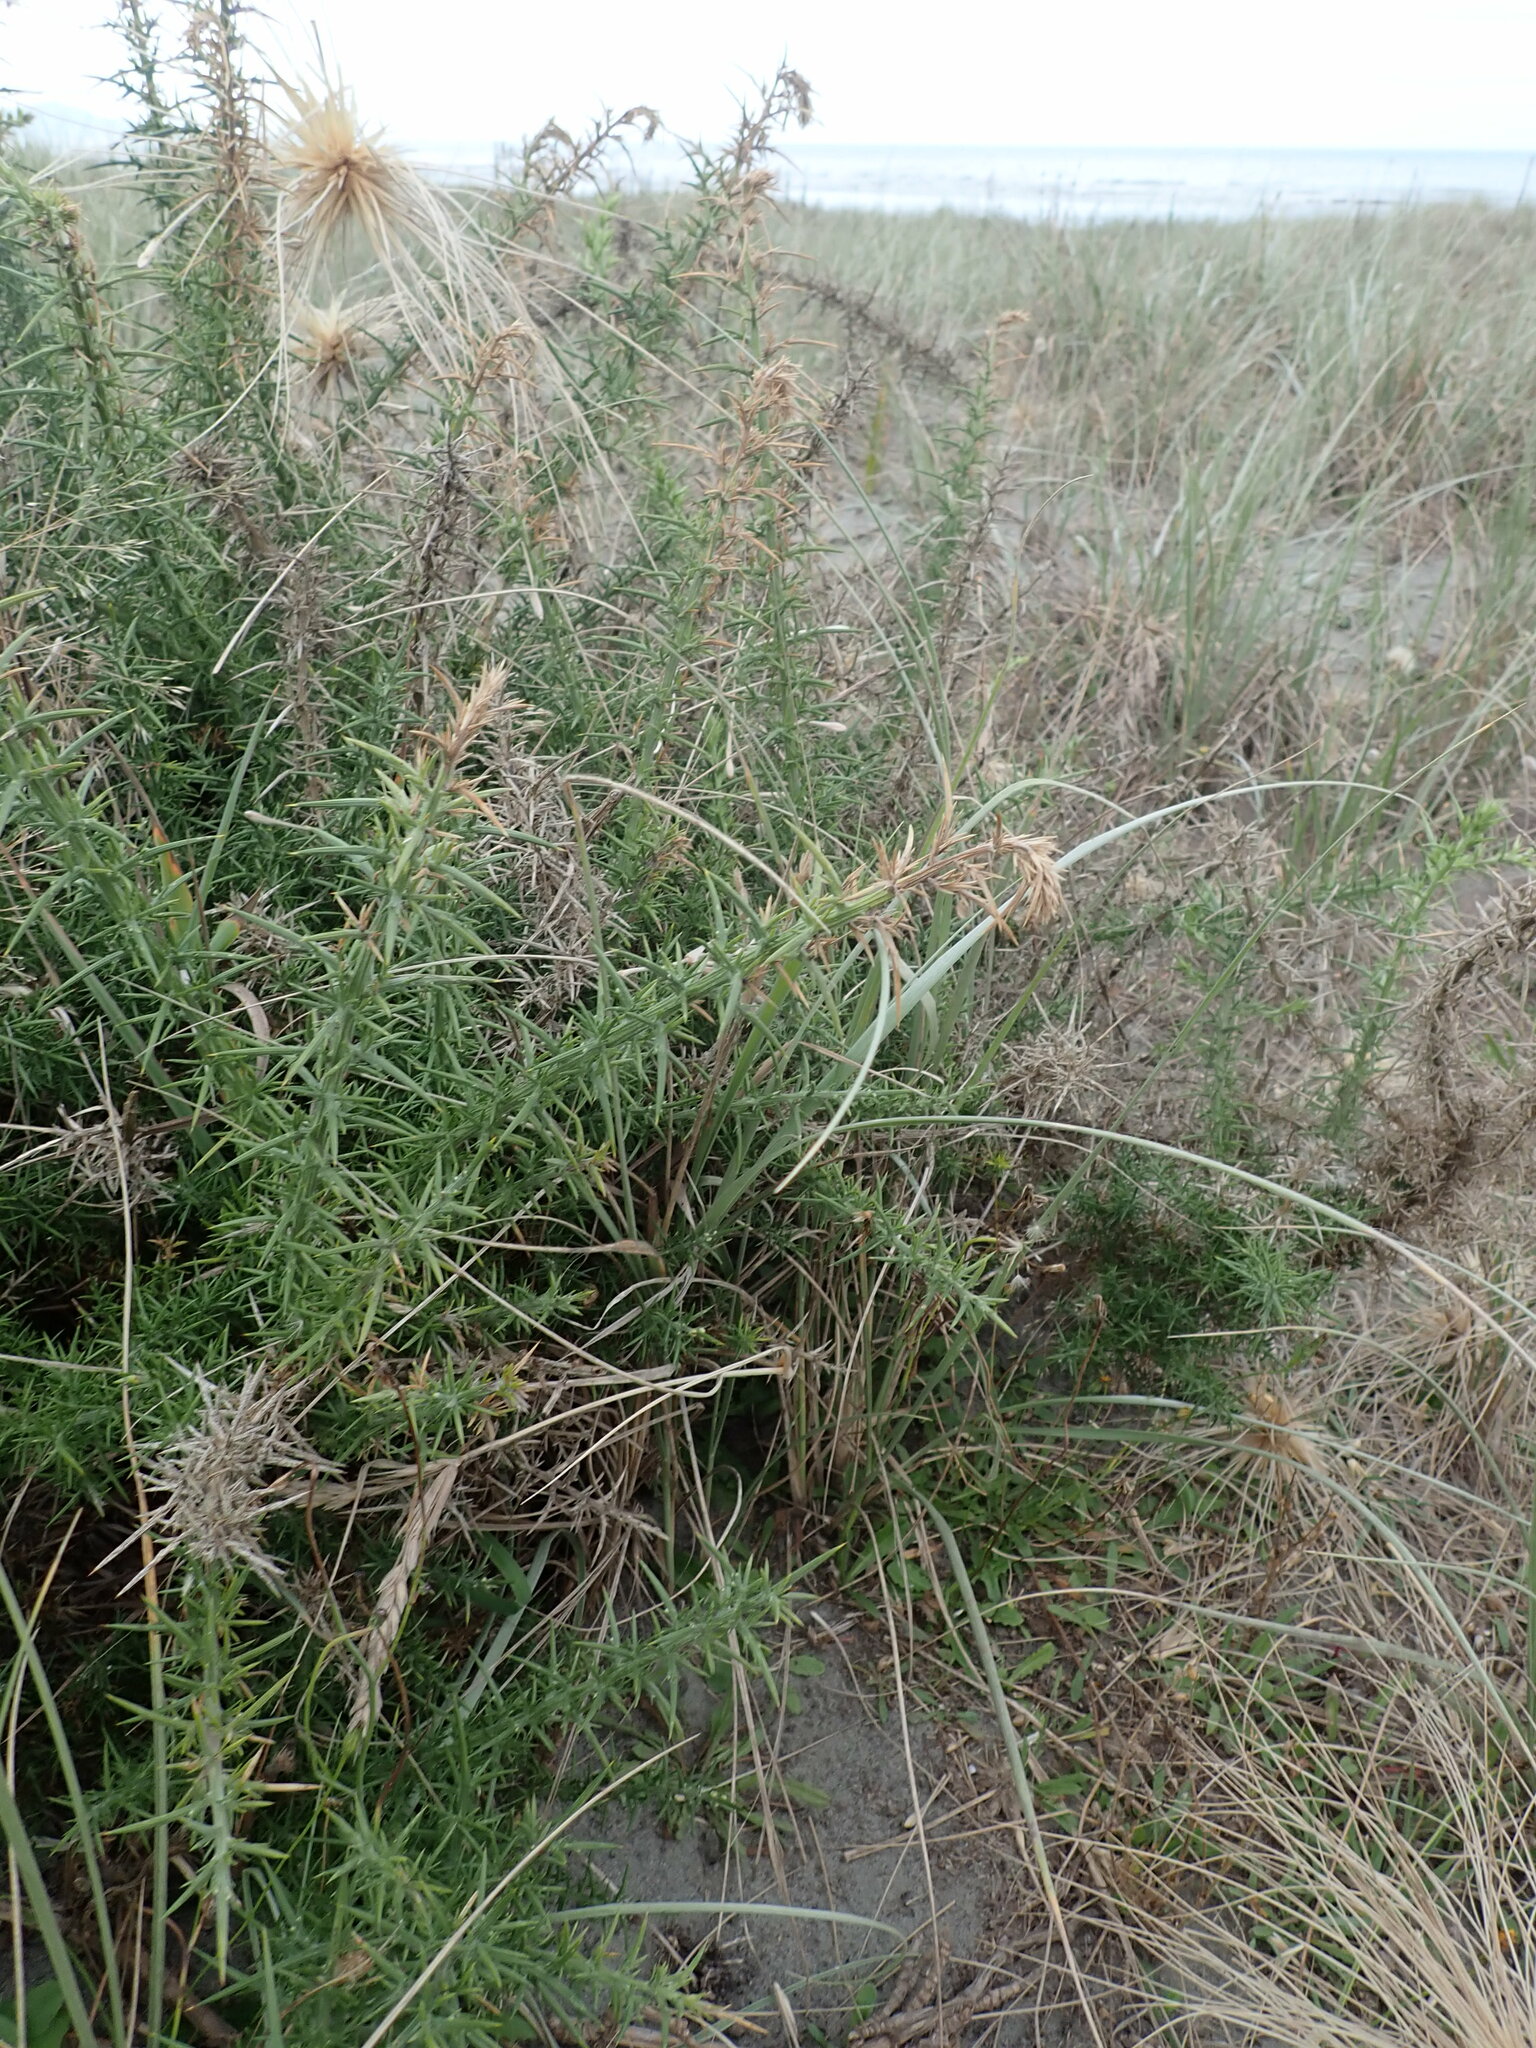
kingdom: Plantae
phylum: Tracheophyta
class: Magnoliopsida
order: Fabales
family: Fabaceae
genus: Ulex
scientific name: Ulex europaeus
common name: Common gorse
